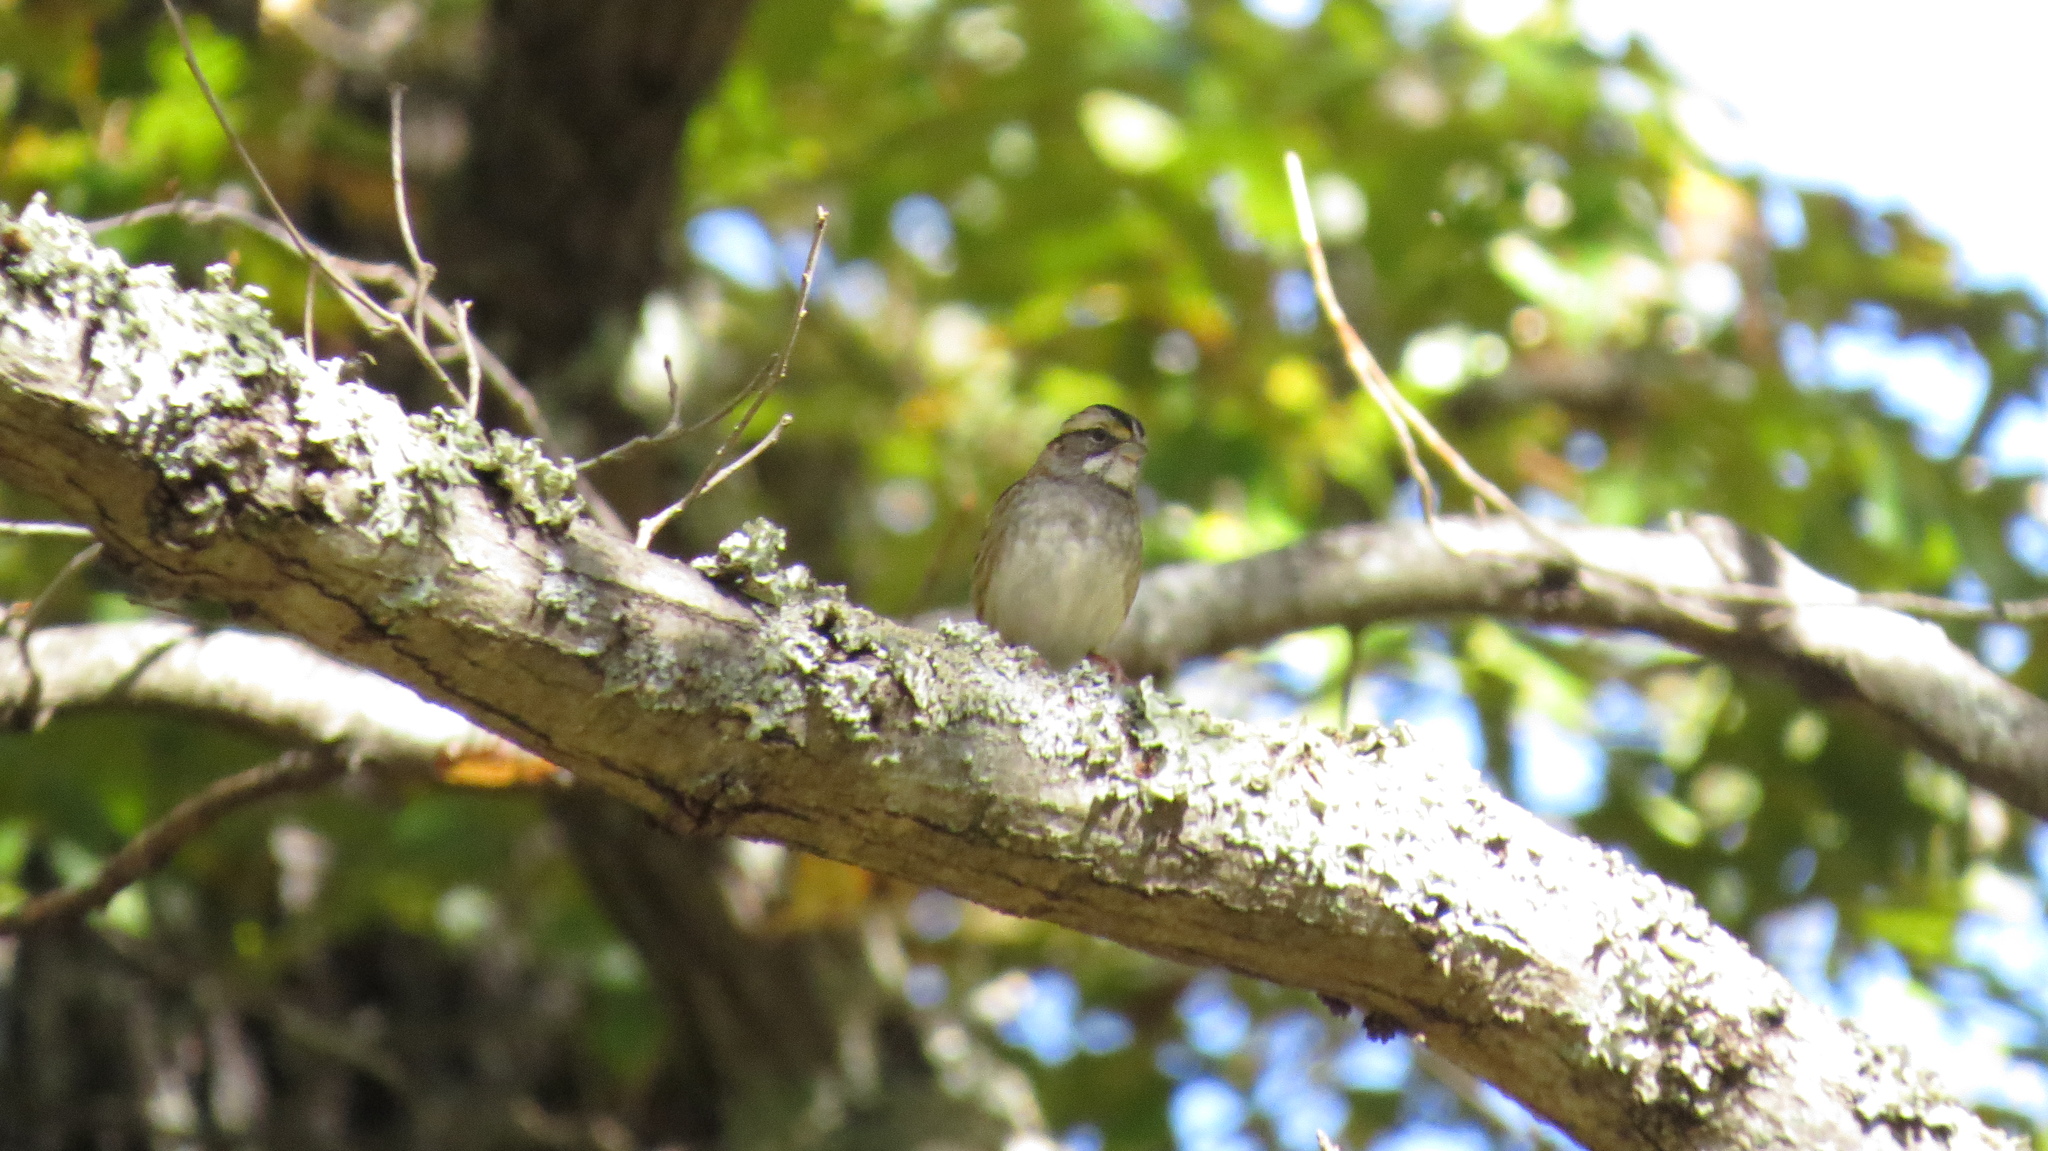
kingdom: Animalia
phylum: Chordata
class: Aves
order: Passeriformes
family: Passerellidae
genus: Zonotrichia
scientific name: Zonotrichia albicollis
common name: White-throated sparrow
